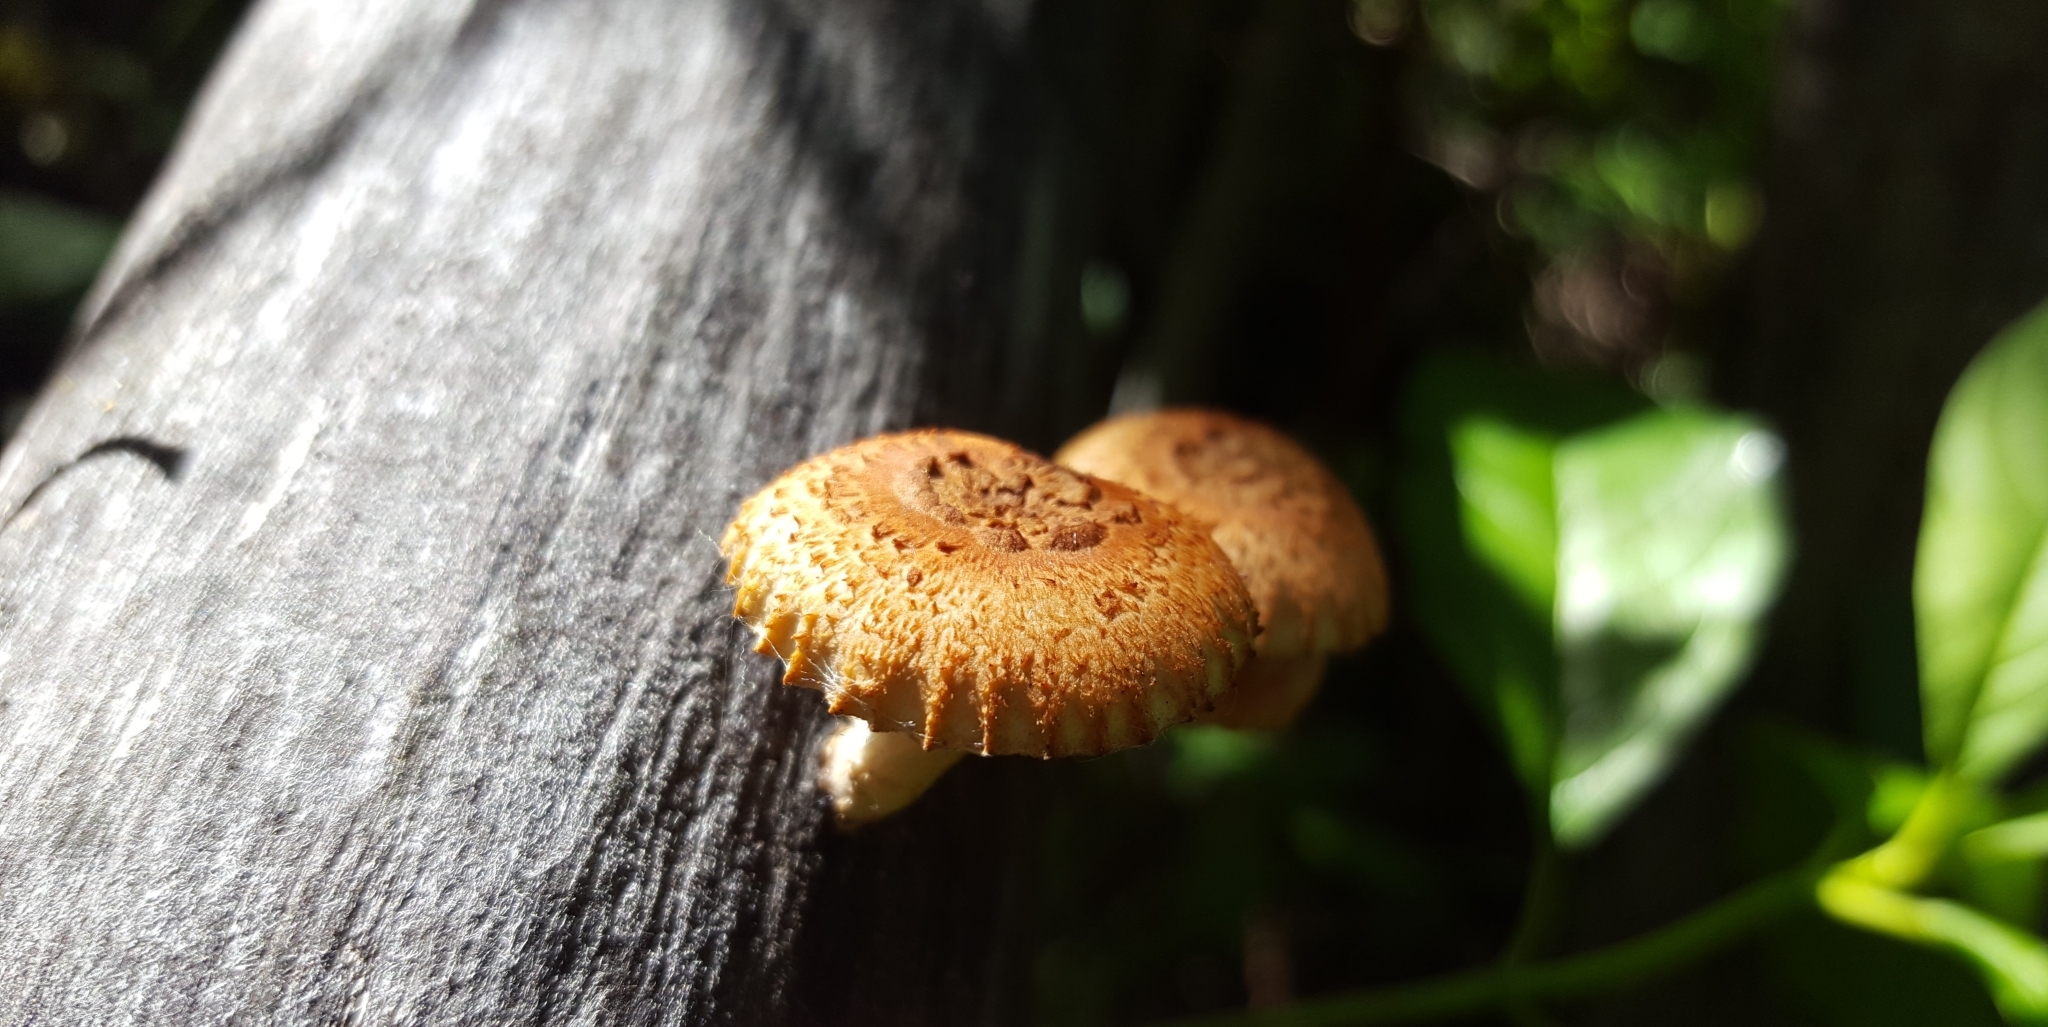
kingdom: Fungi
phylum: Basidiomycota
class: Agaricomycetes
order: Gloeophyllales
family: Gloeophyllaceae
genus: Heliocybe
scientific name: Heliocybe sulcata
